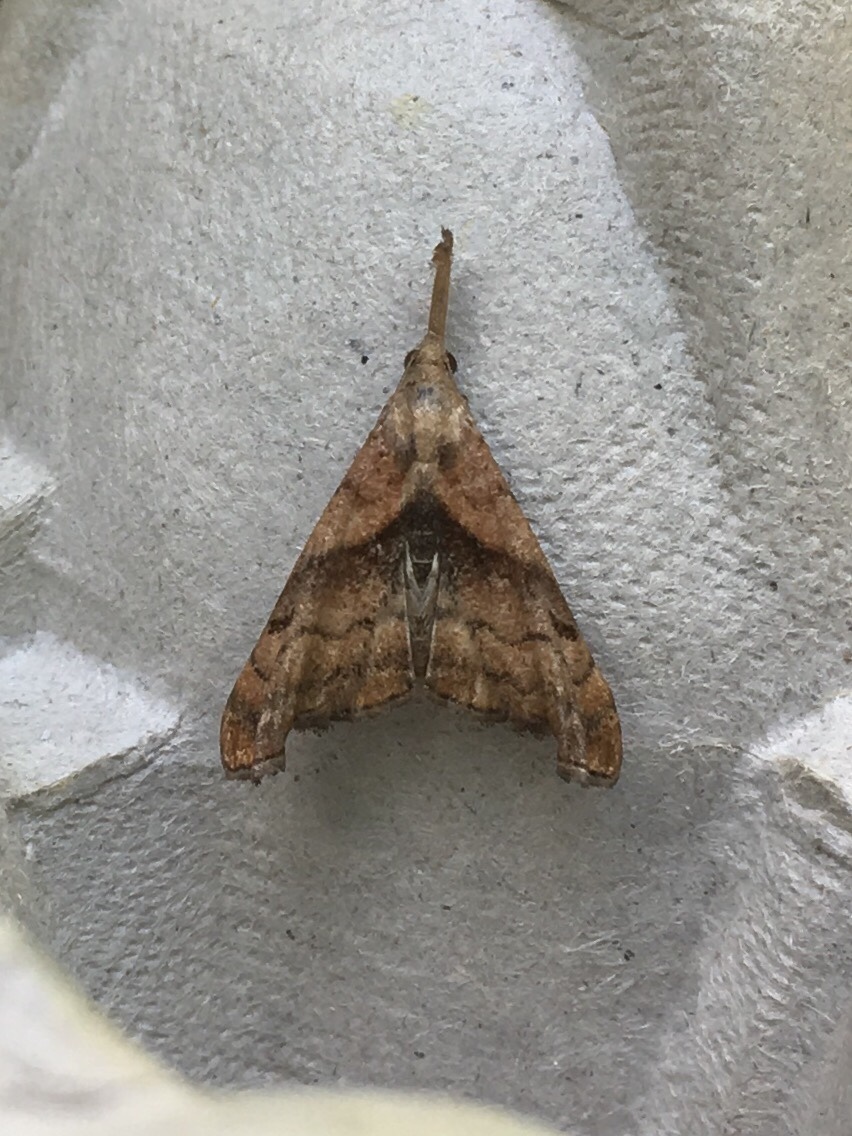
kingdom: Animalia
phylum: Arthropoda
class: Insecta
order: Lepidoptera
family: Erebidae
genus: Palthis
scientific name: Palthis angulalis
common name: Dark-spotted palthis moth
